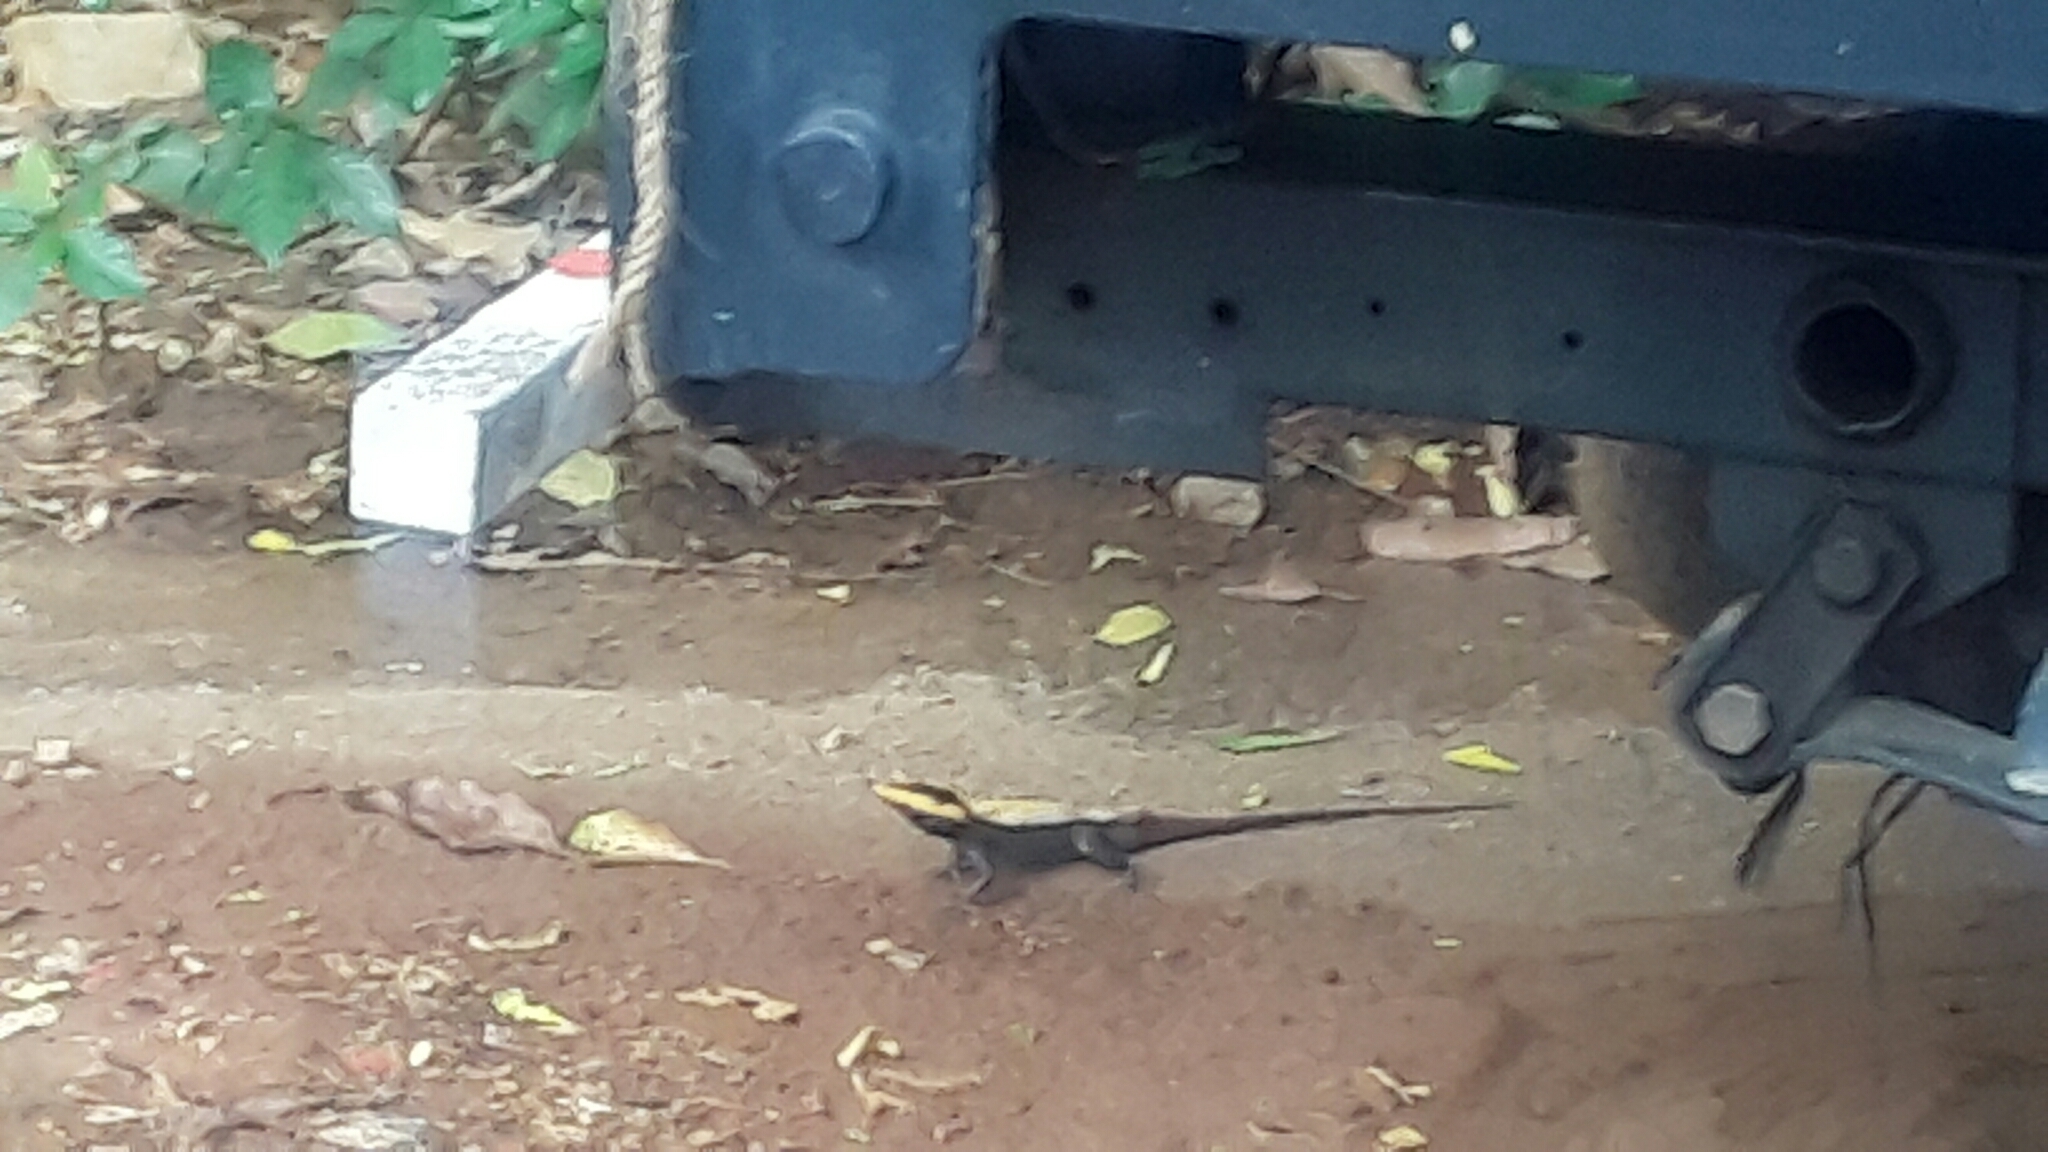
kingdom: Animalia
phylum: Chordata
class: Squamata
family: Agamidae
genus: Psammophilus
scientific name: Psammophilus dorsalis
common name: South indian rock agama
